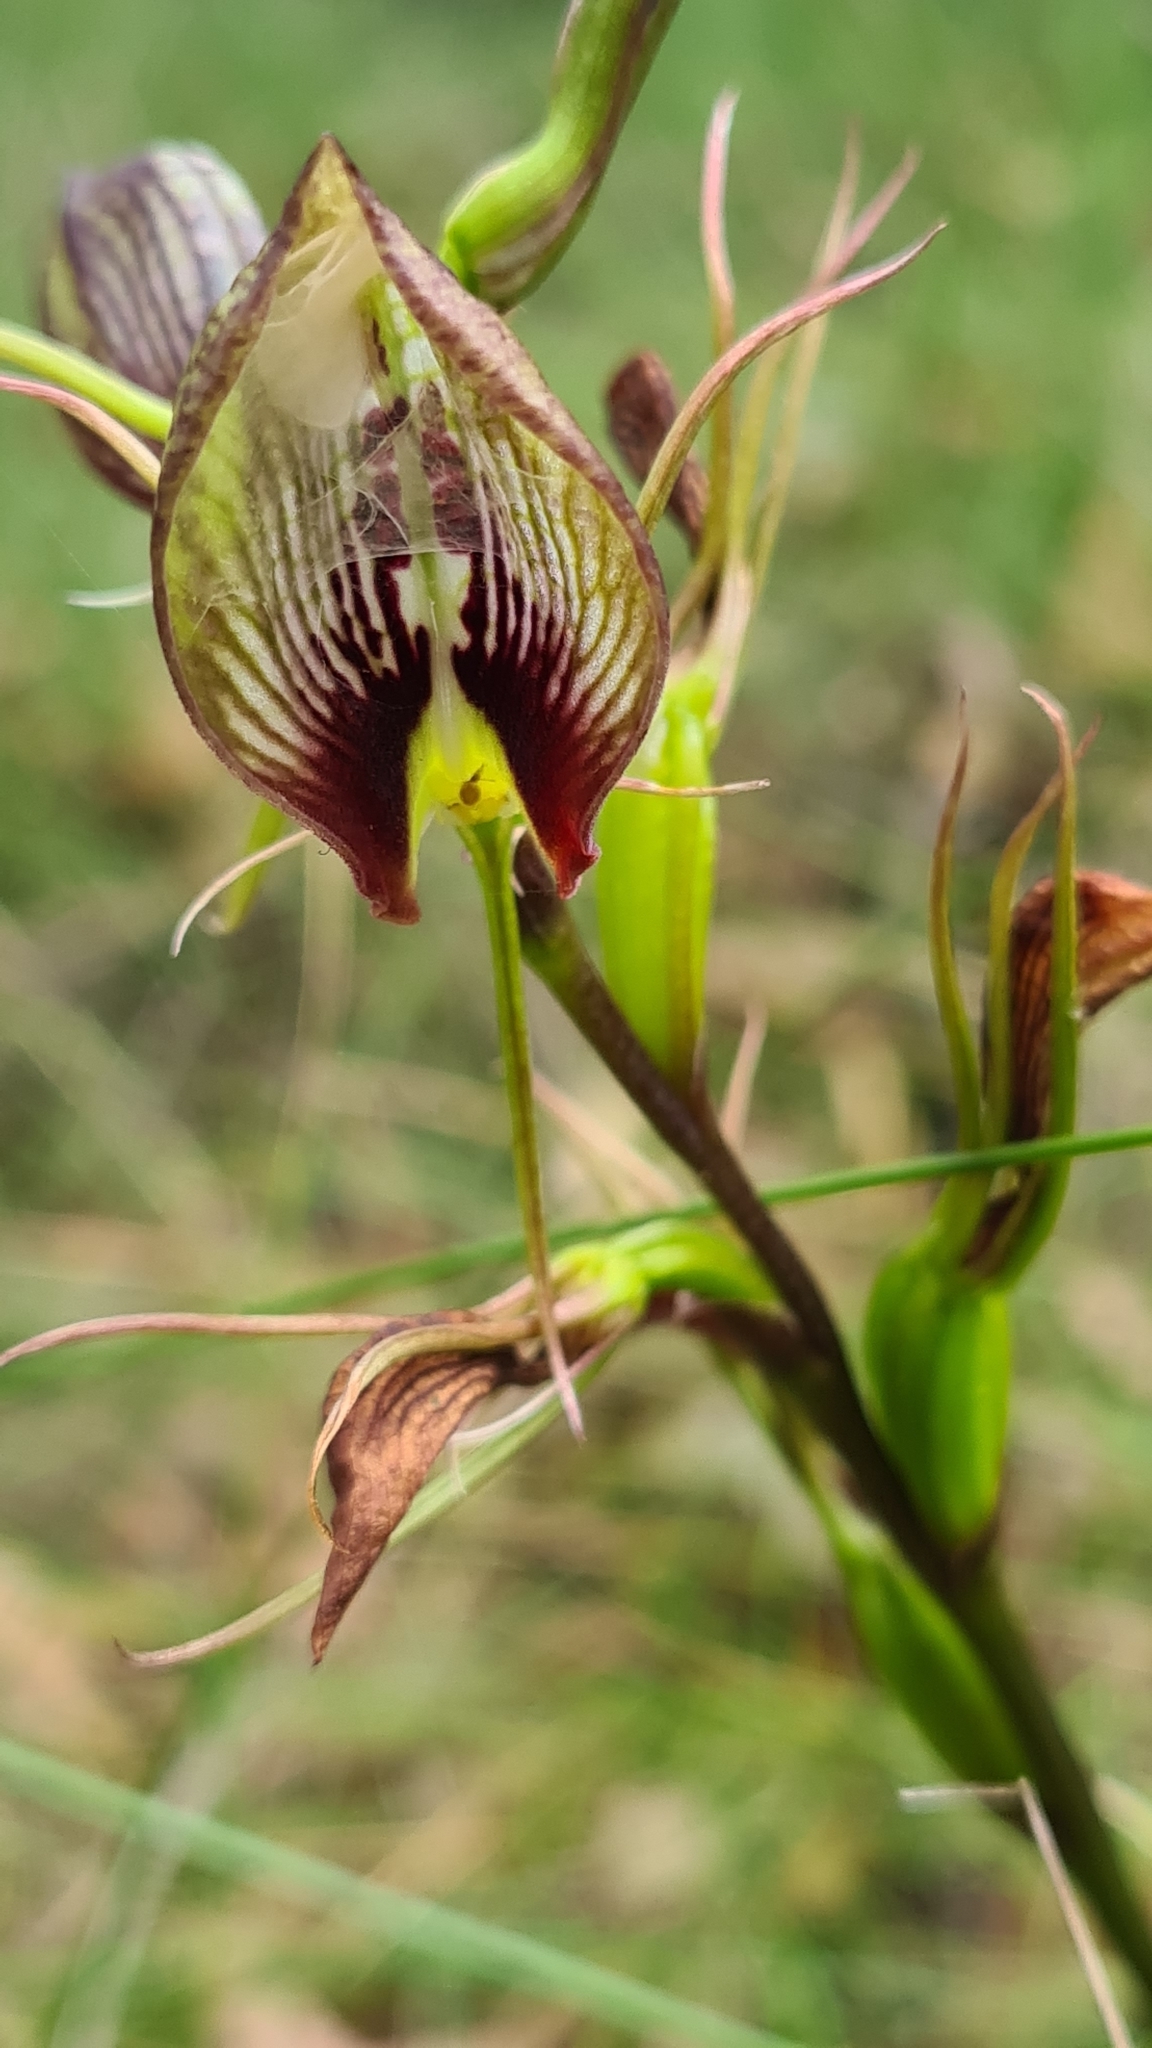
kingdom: Plantae
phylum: Tracheophyta
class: Liliopsida
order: Asparagales
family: Orchidaceae
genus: Cryptostylis
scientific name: Cryptostylis erecta
